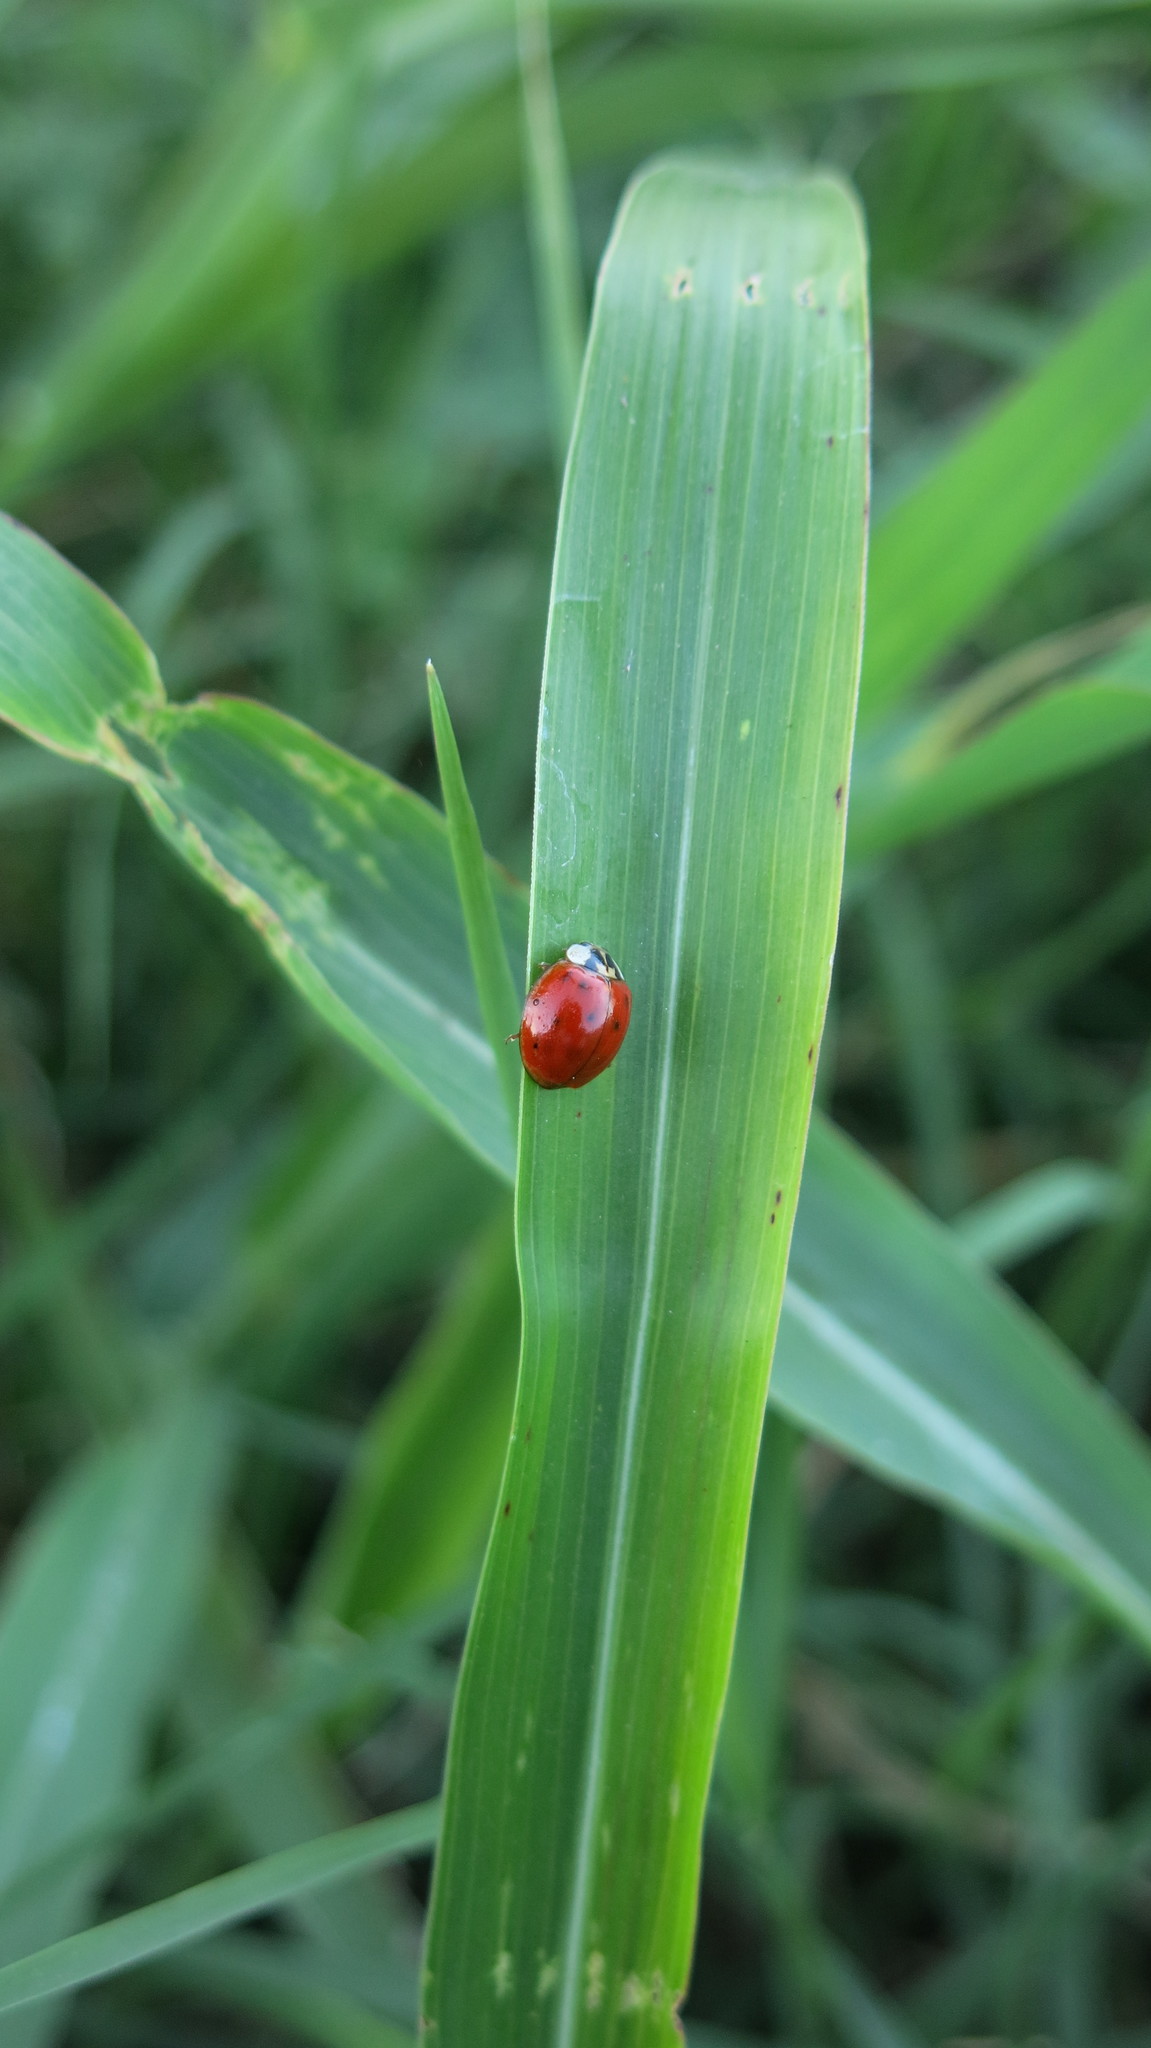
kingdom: Animalia
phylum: Arthropoda
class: Insecta
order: Coleoptera
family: Coccinellidae
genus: Harmonia
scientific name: Harmonia axyridis
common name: Harlequin ladybird
